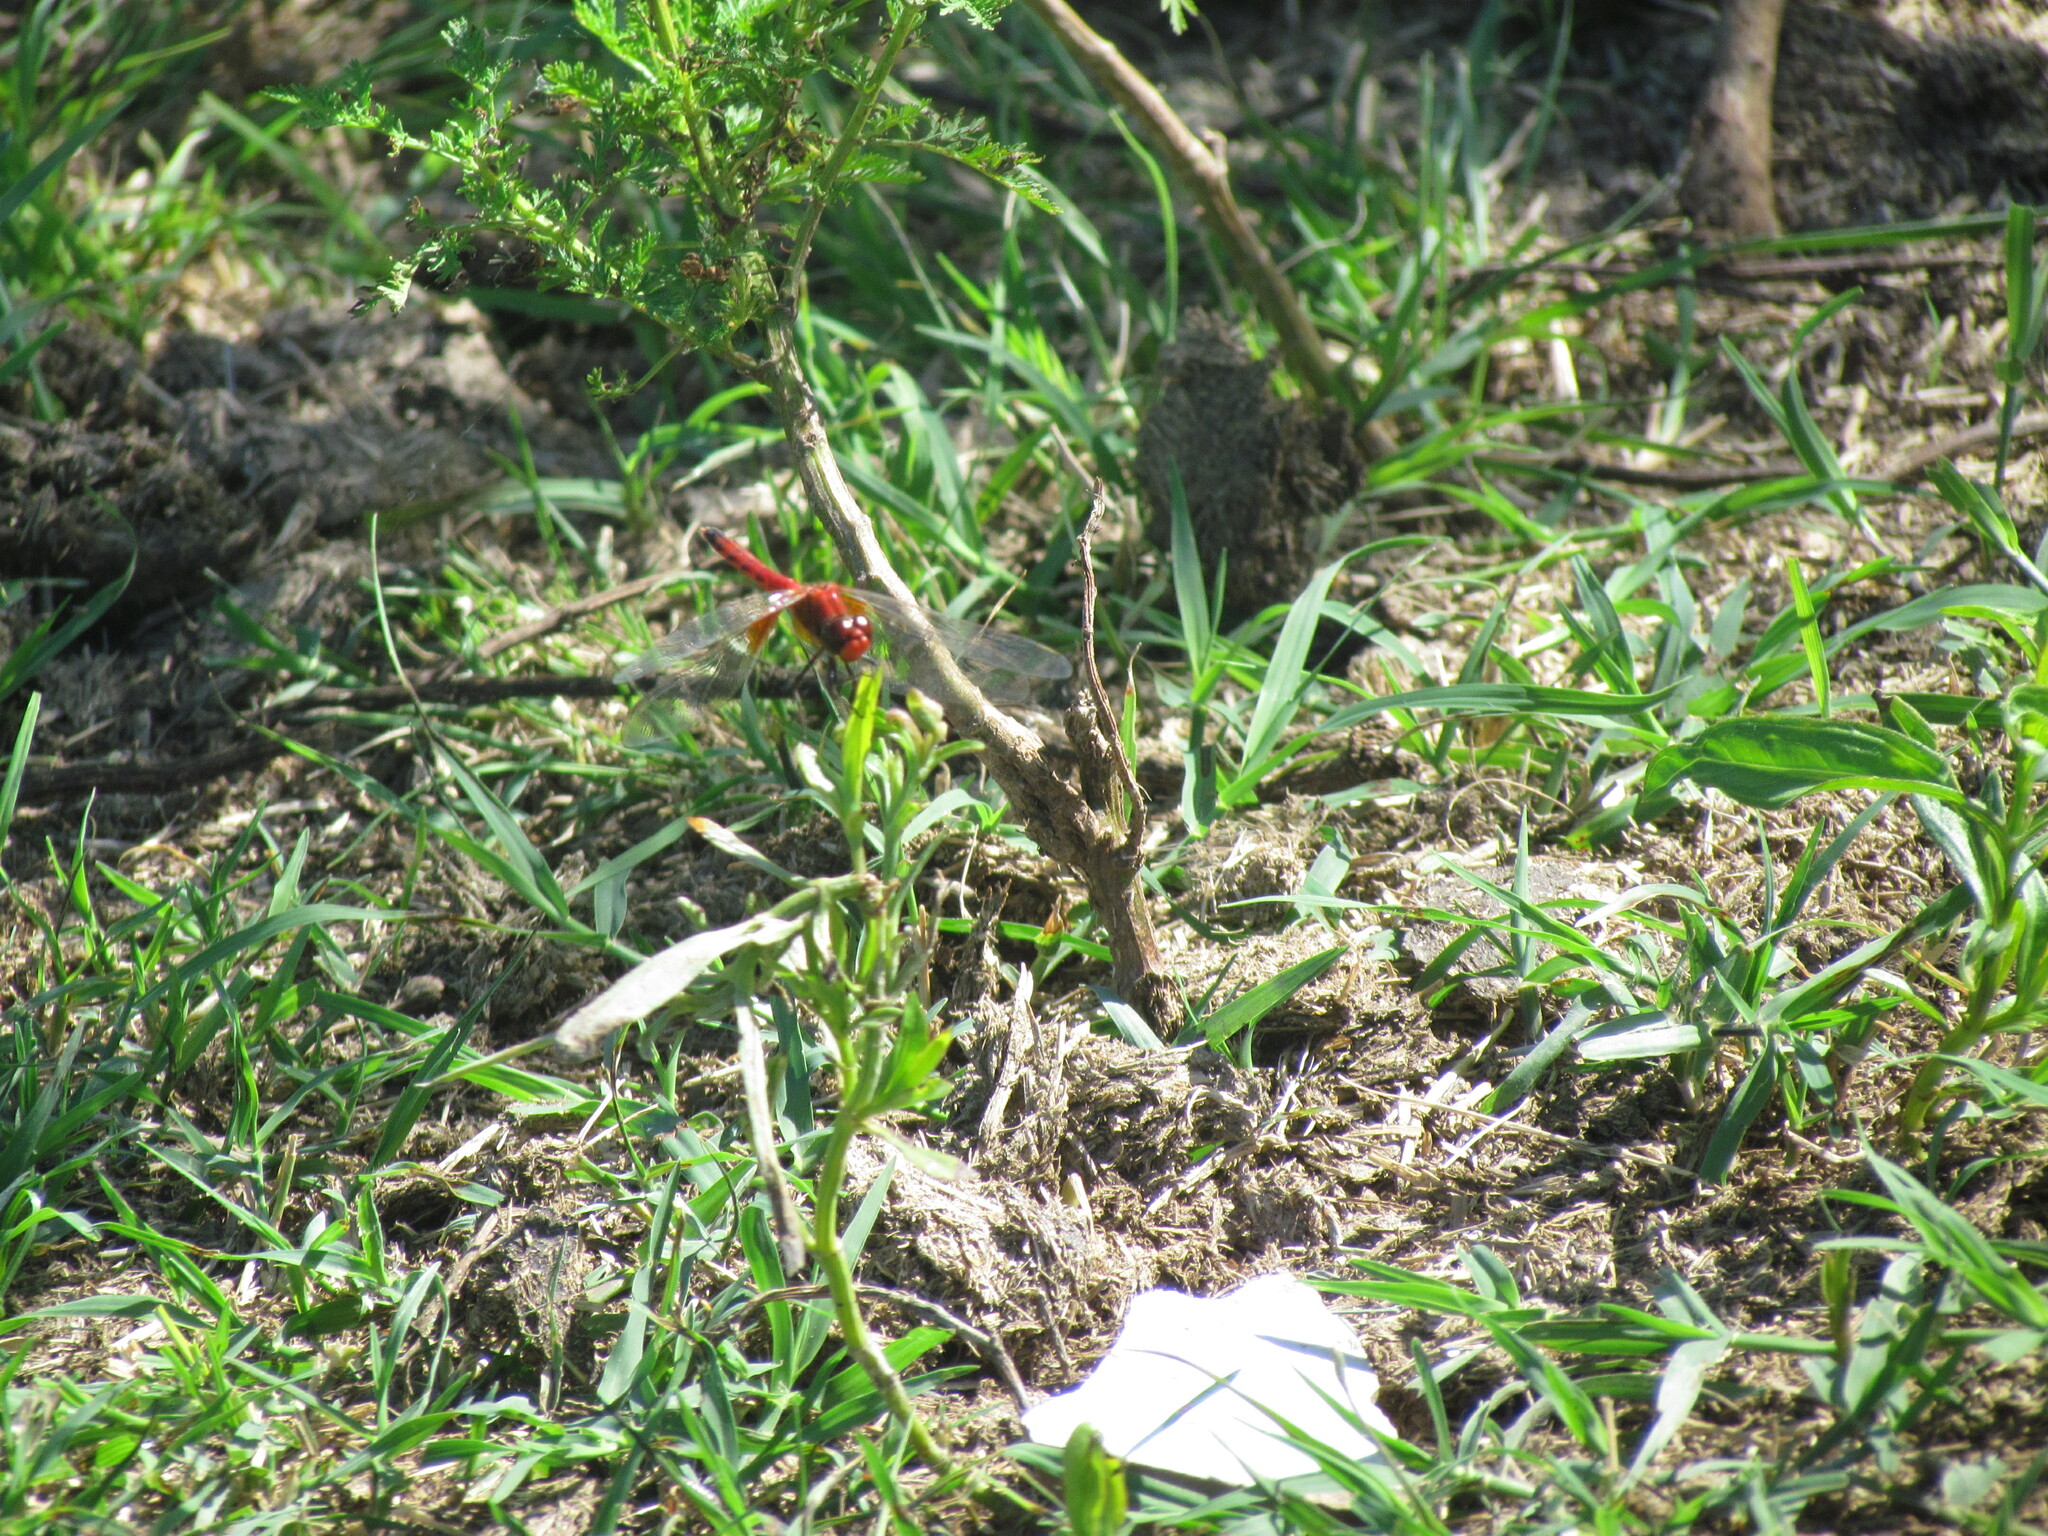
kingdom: Animalia
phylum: Arthropoda
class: Insecta
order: Odonata
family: Libellulidae
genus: Erythrodiplax
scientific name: Erythrodiplax corallina
